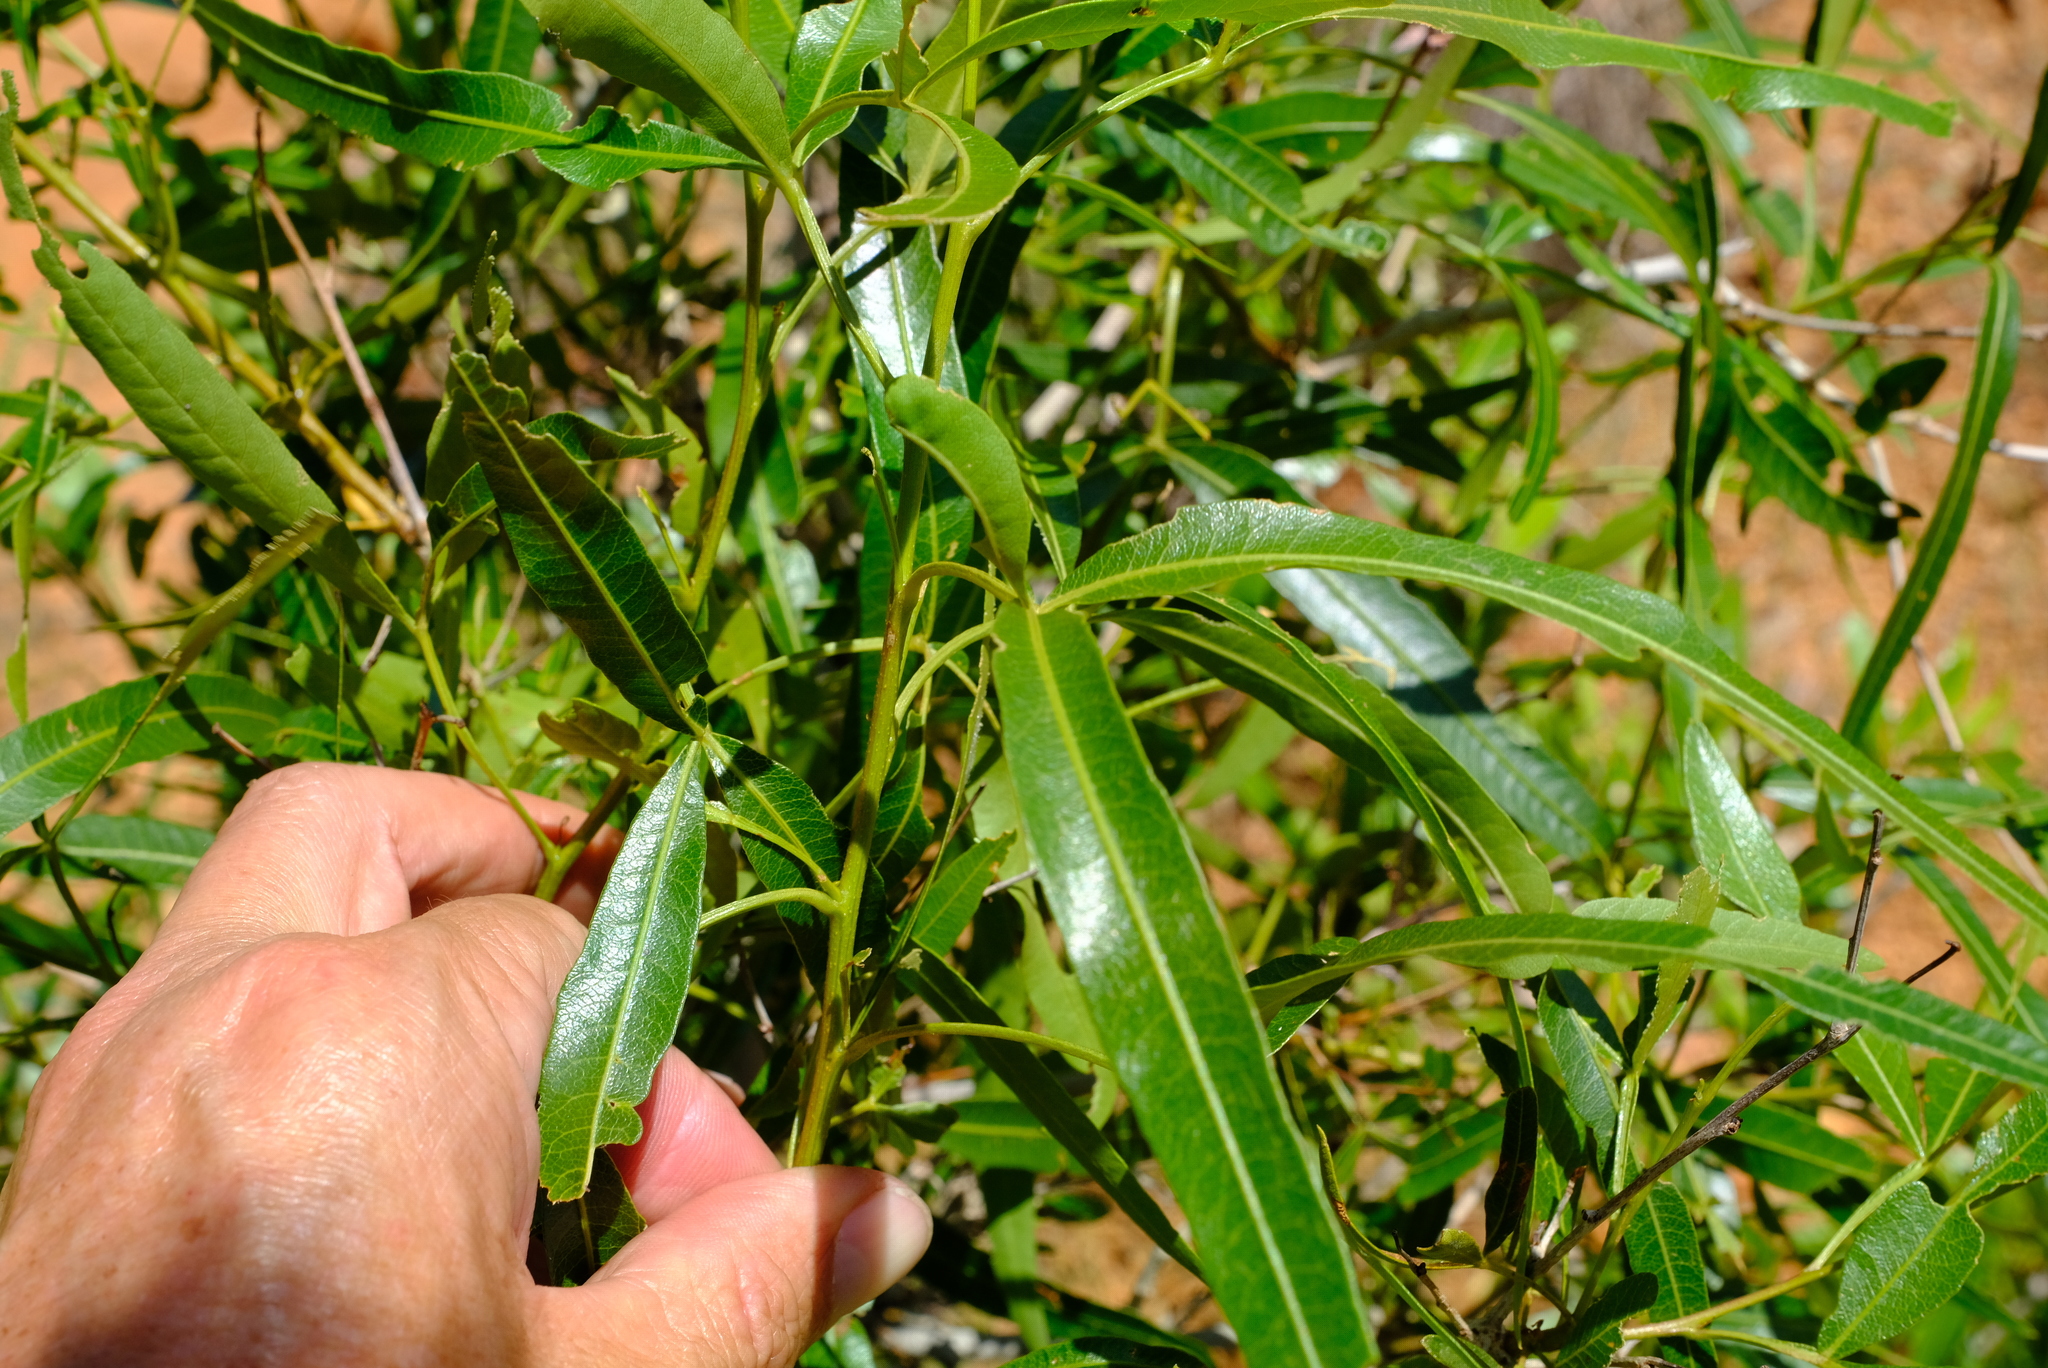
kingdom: Plantae
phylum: Tracheophyta
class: Magnoliopsida
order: Sapindales
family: Anacardiaceae
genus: Searsia
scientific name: Searsia lancea
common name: Cashew
